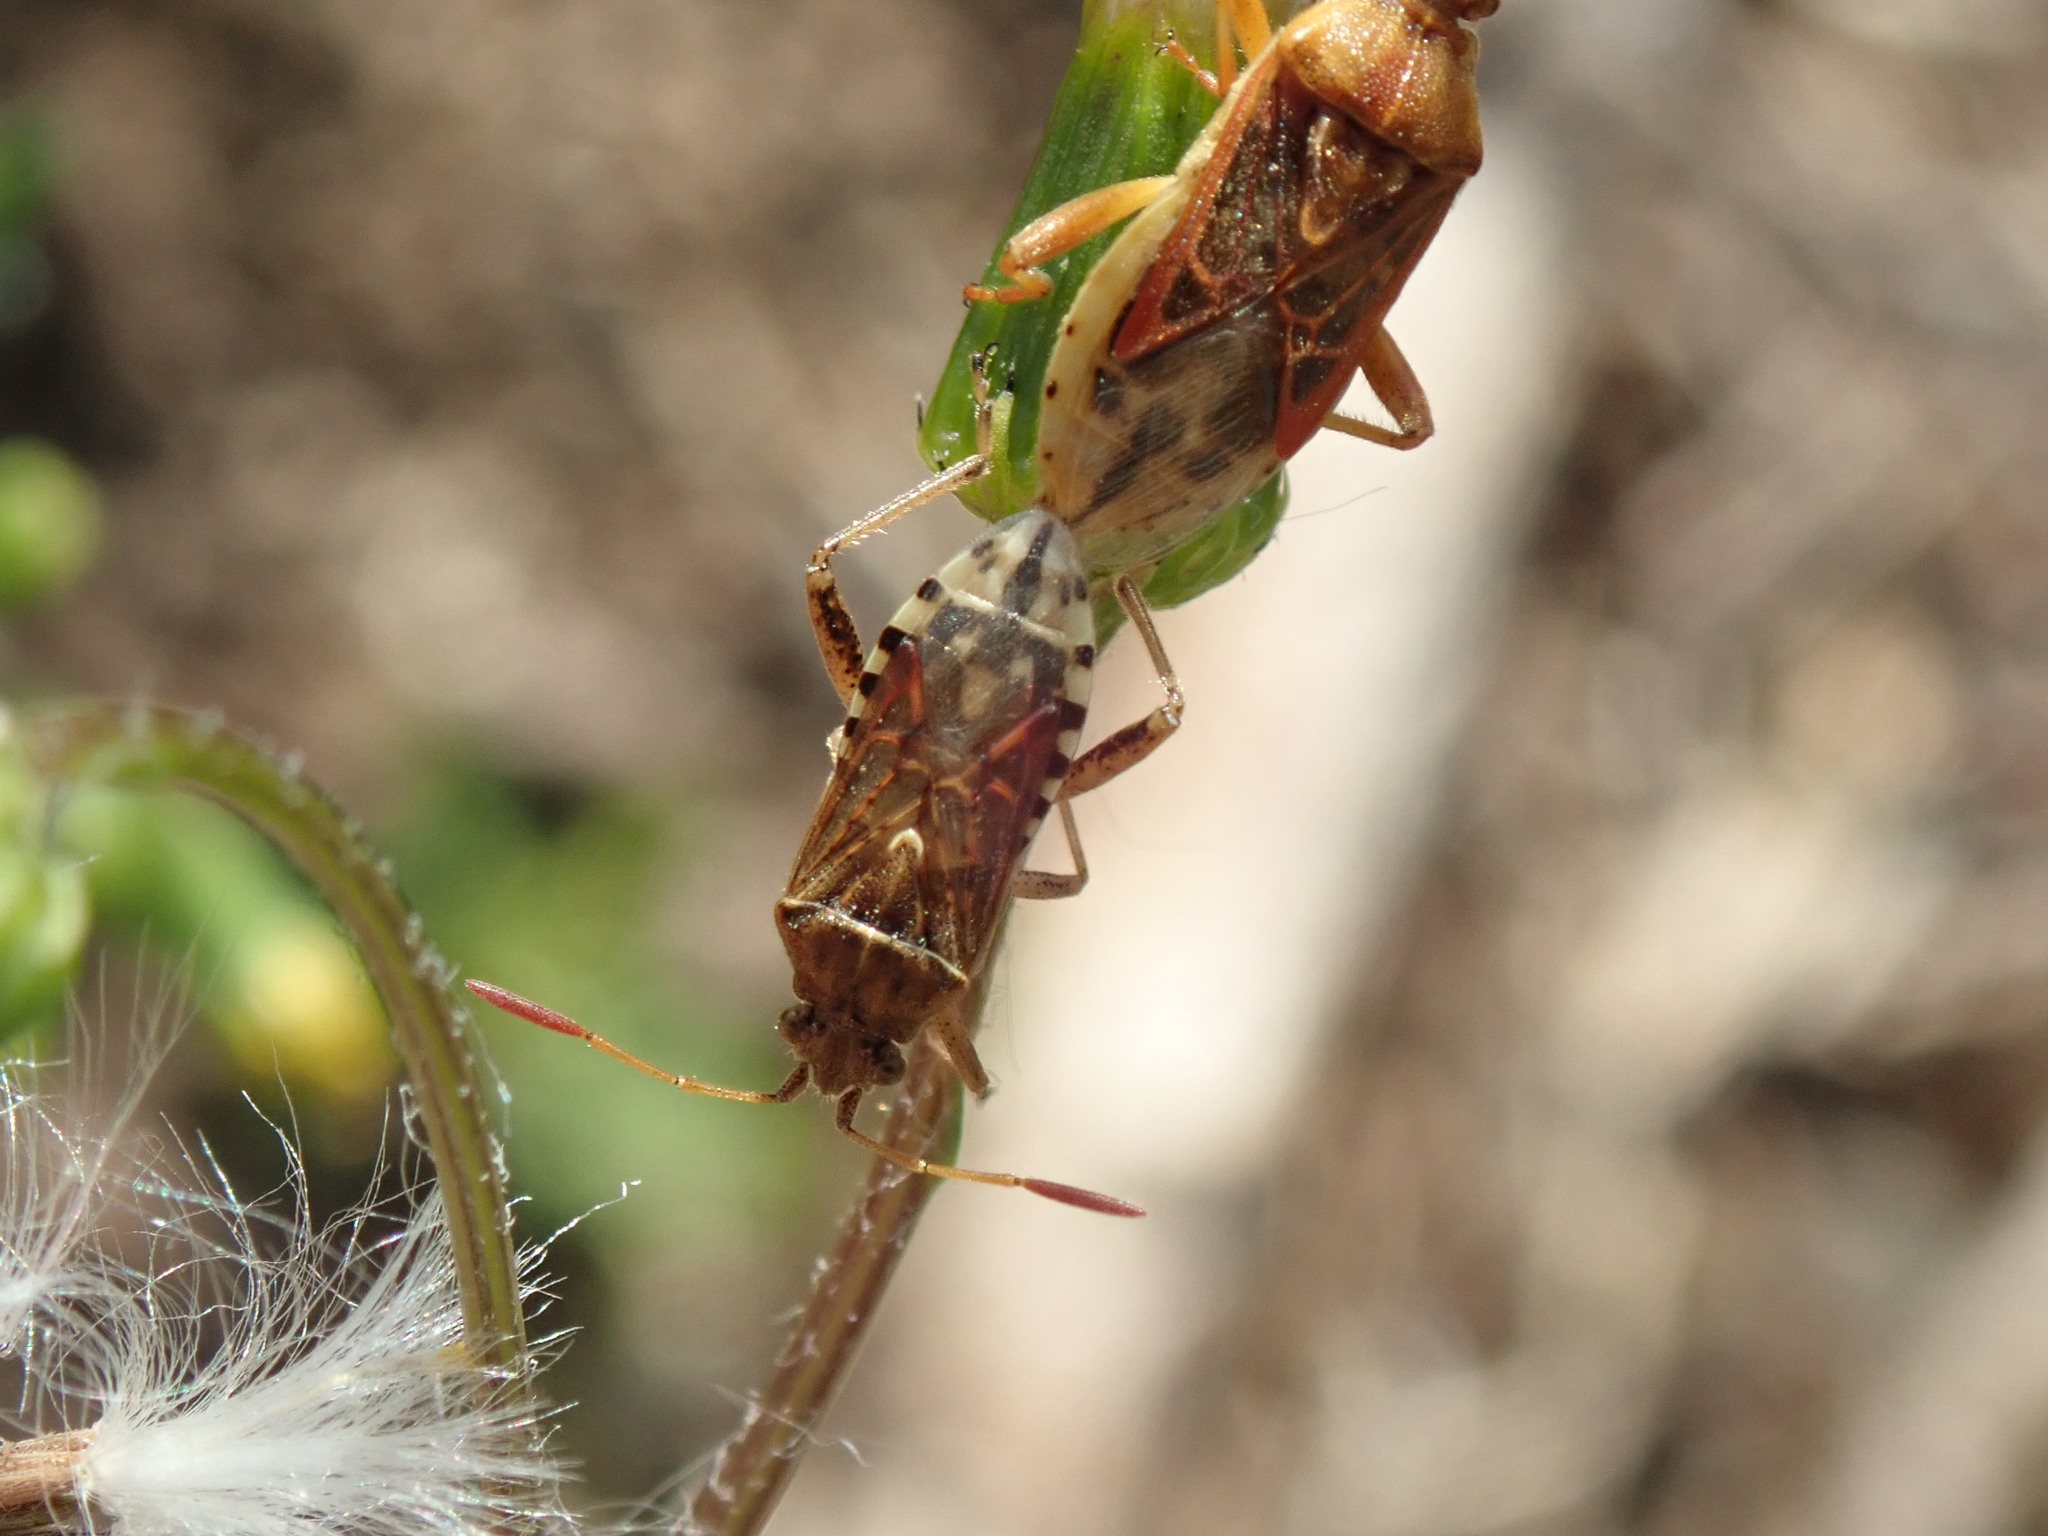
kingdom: Animalia
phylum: Arthropoda
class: Insecta
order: Hemiptera
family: Rhopalidae
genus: Stictopleurus
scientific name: Stictopleurus abutilon
